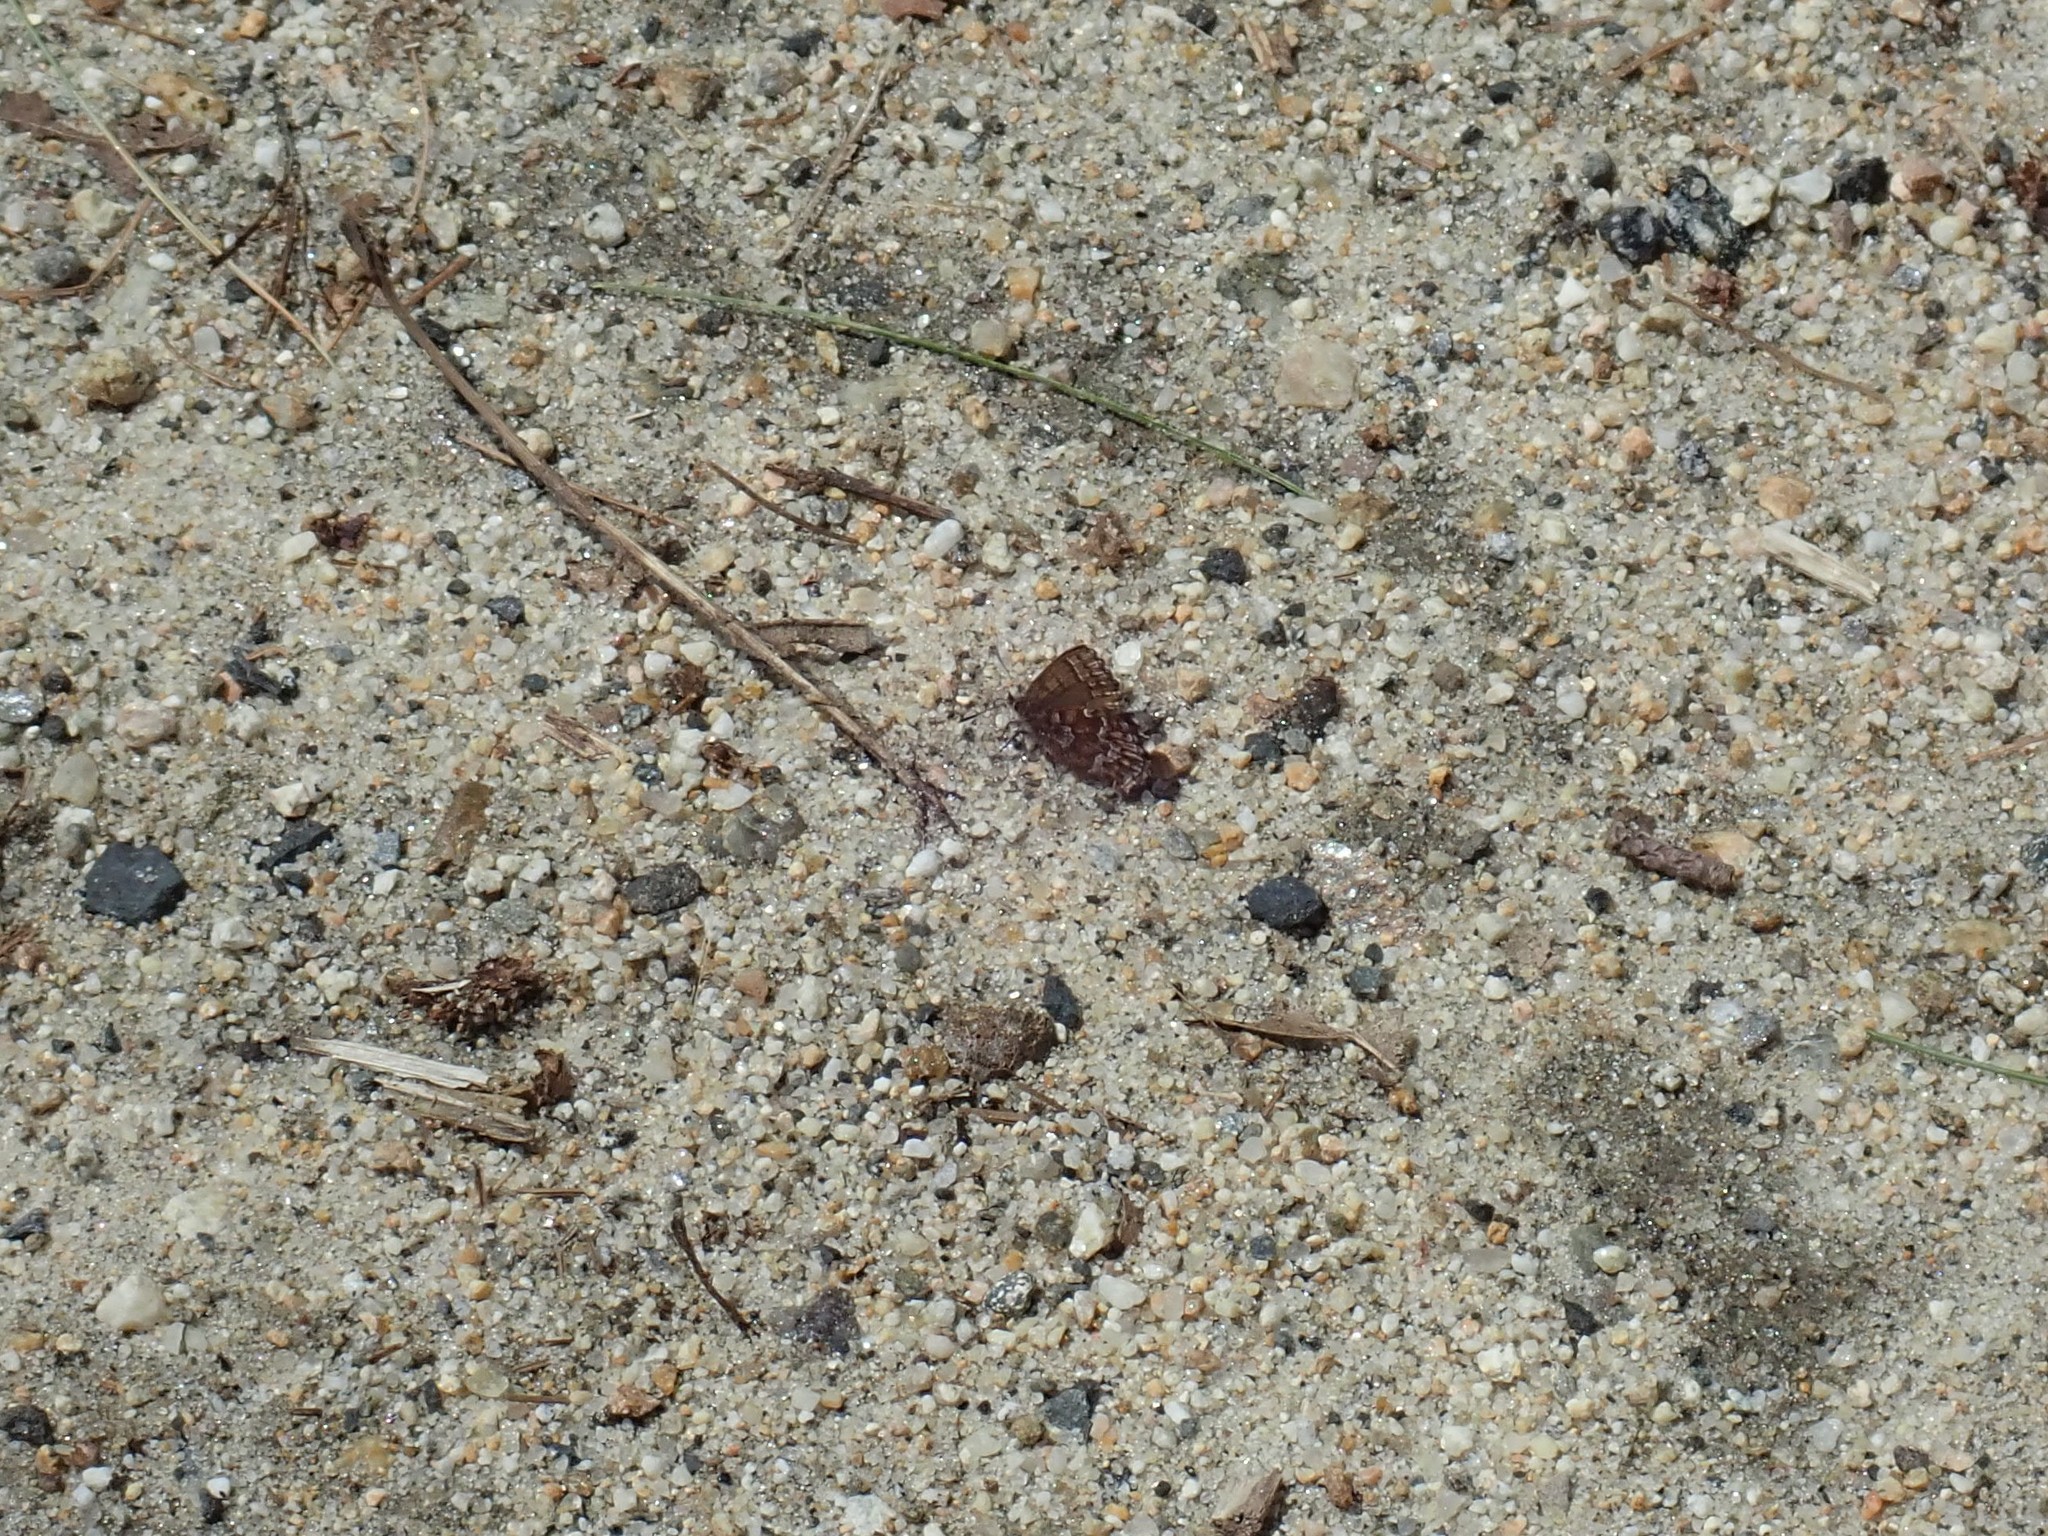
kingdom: Animalia
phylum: Arthropoda
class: Insecta
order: Lepidoptera
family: Lycaenidae
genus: Incisalia
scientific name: Incisalia niphon
